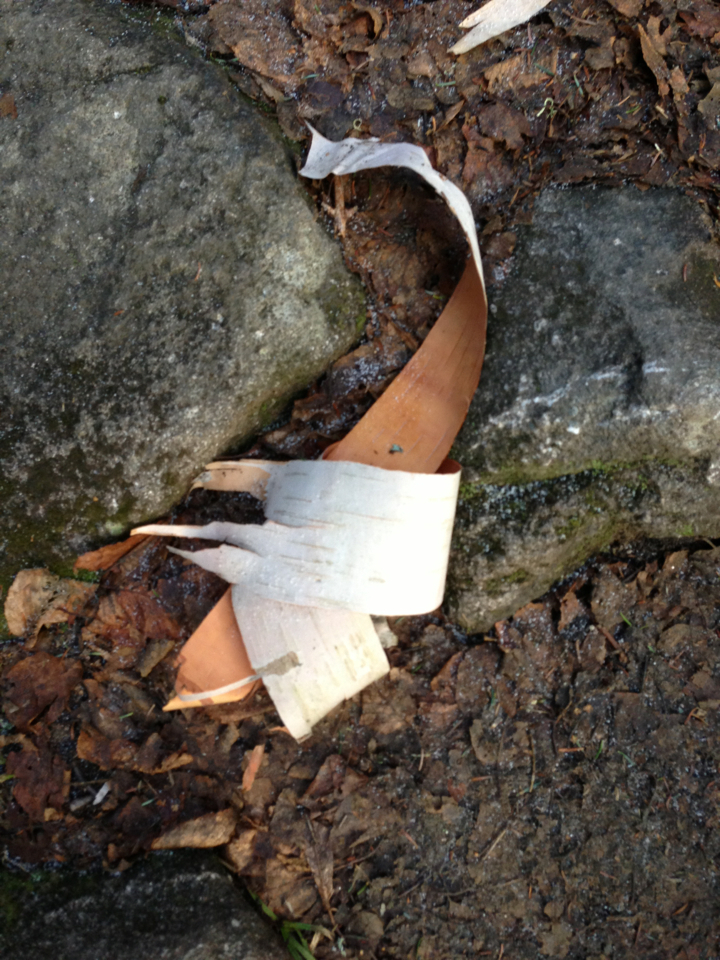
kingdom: Plantae
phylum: Tracheophyta
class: Magnoliopsida
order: Fagales
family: Betulaceae
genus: Betula
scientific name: Betula cordifolia
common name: Mountain white birch
